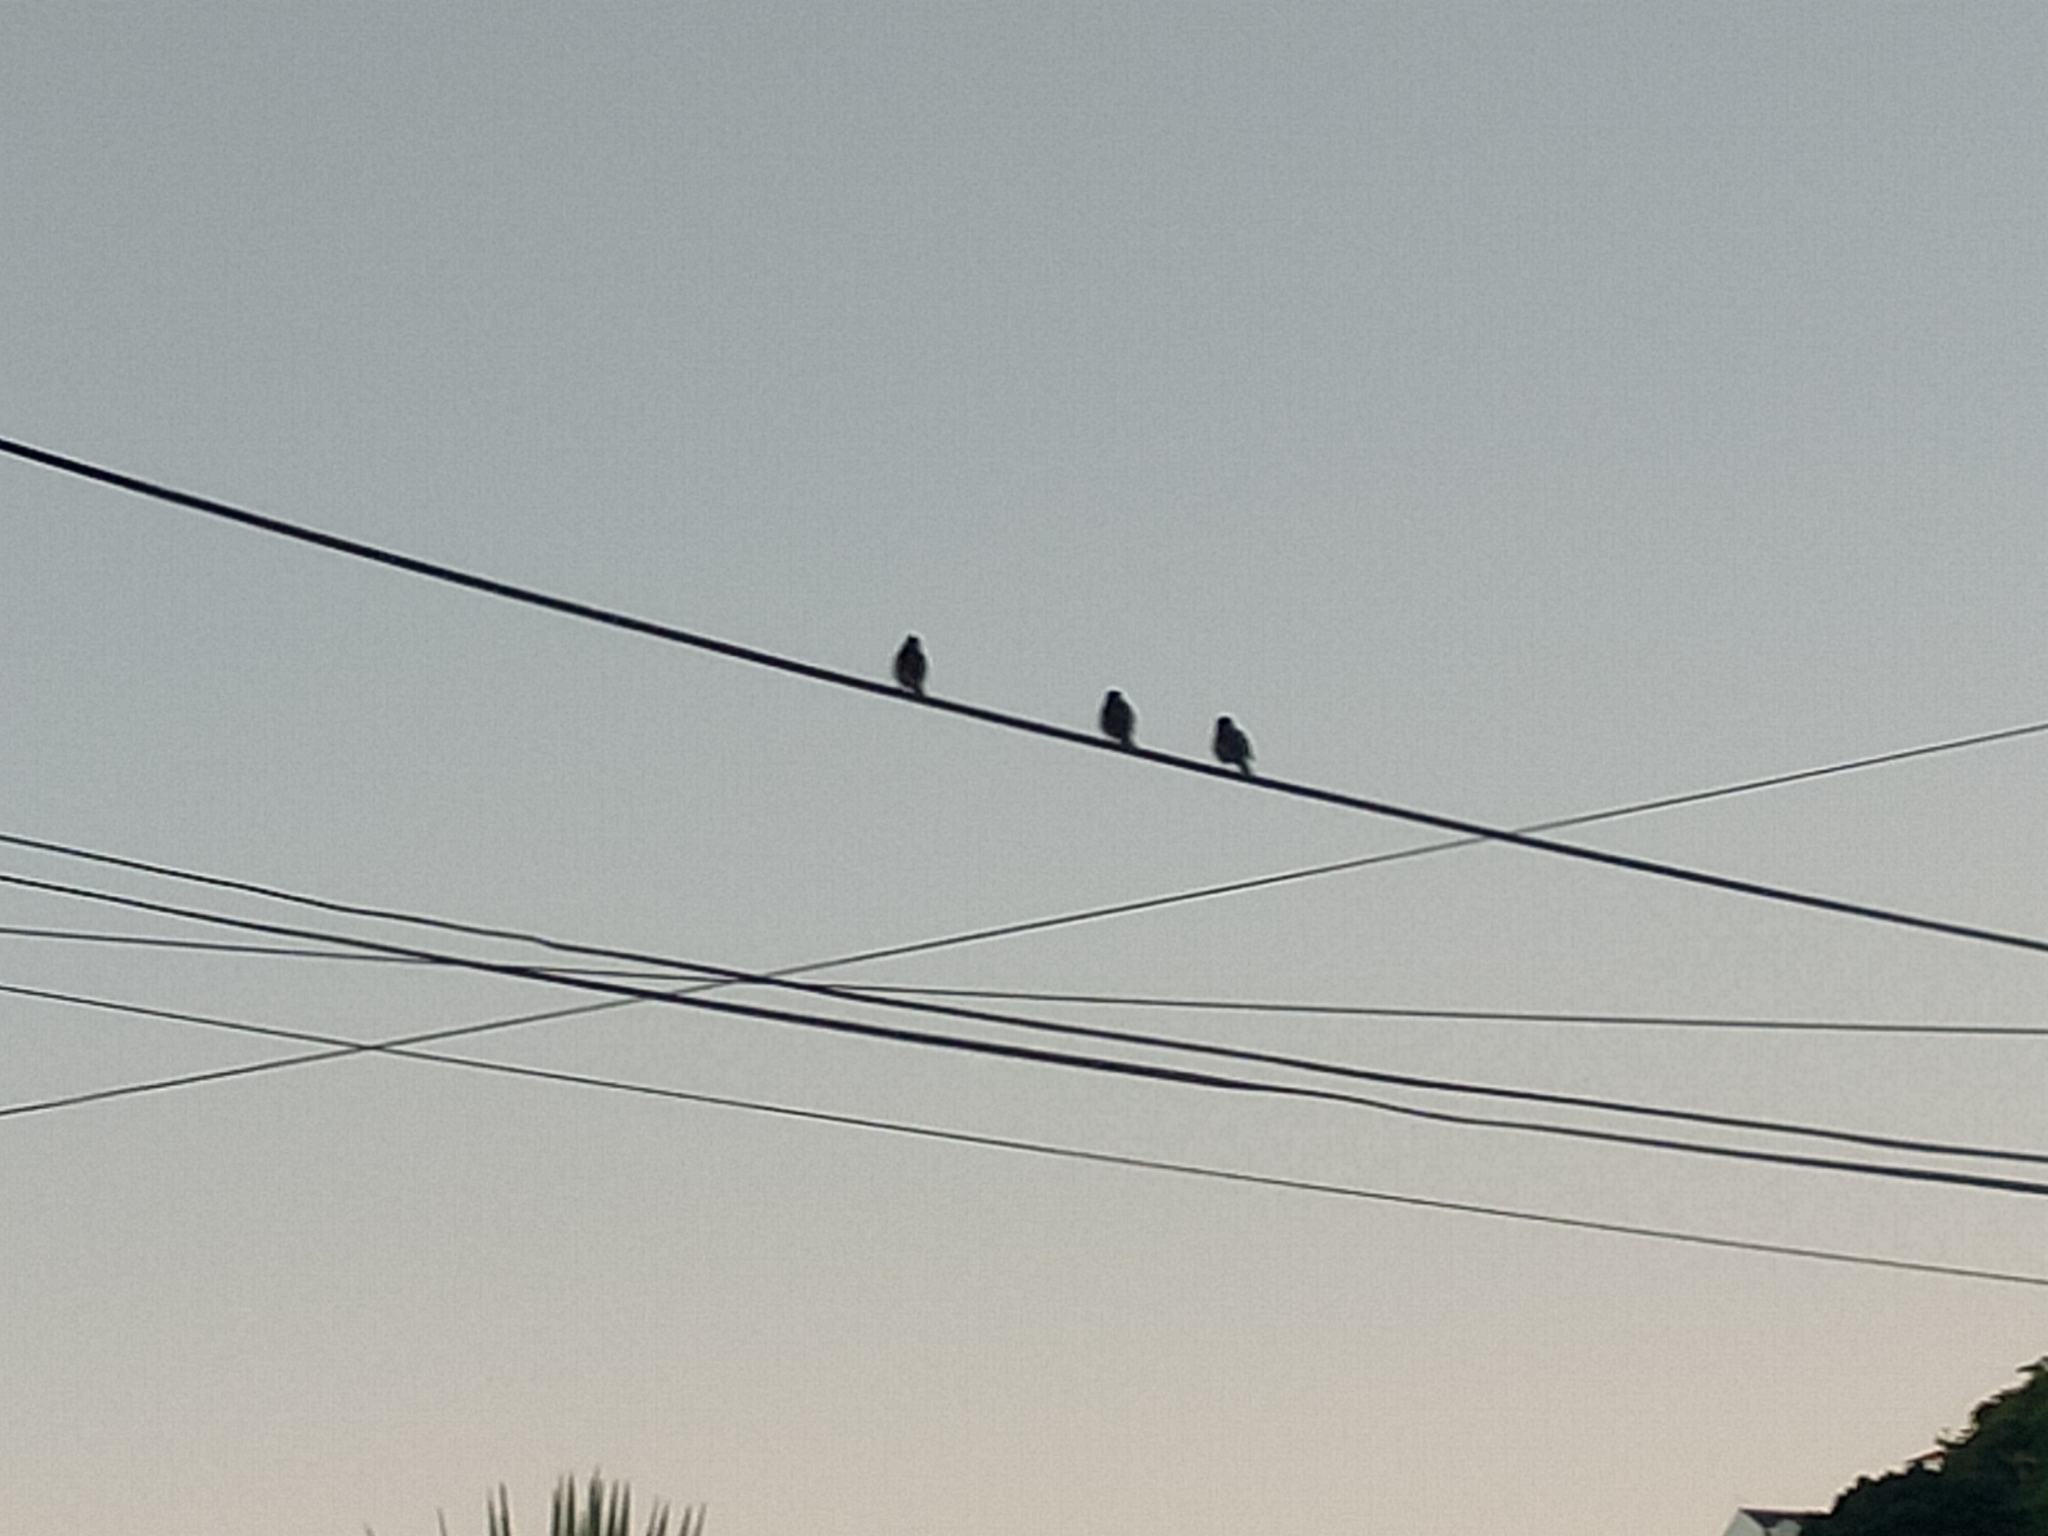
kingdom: Animalia
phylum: Chordata
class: Aves
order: Passeriformes
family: Sturnidae
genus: Sturnus
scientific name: Sturnus vulgaris
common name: Common starling
